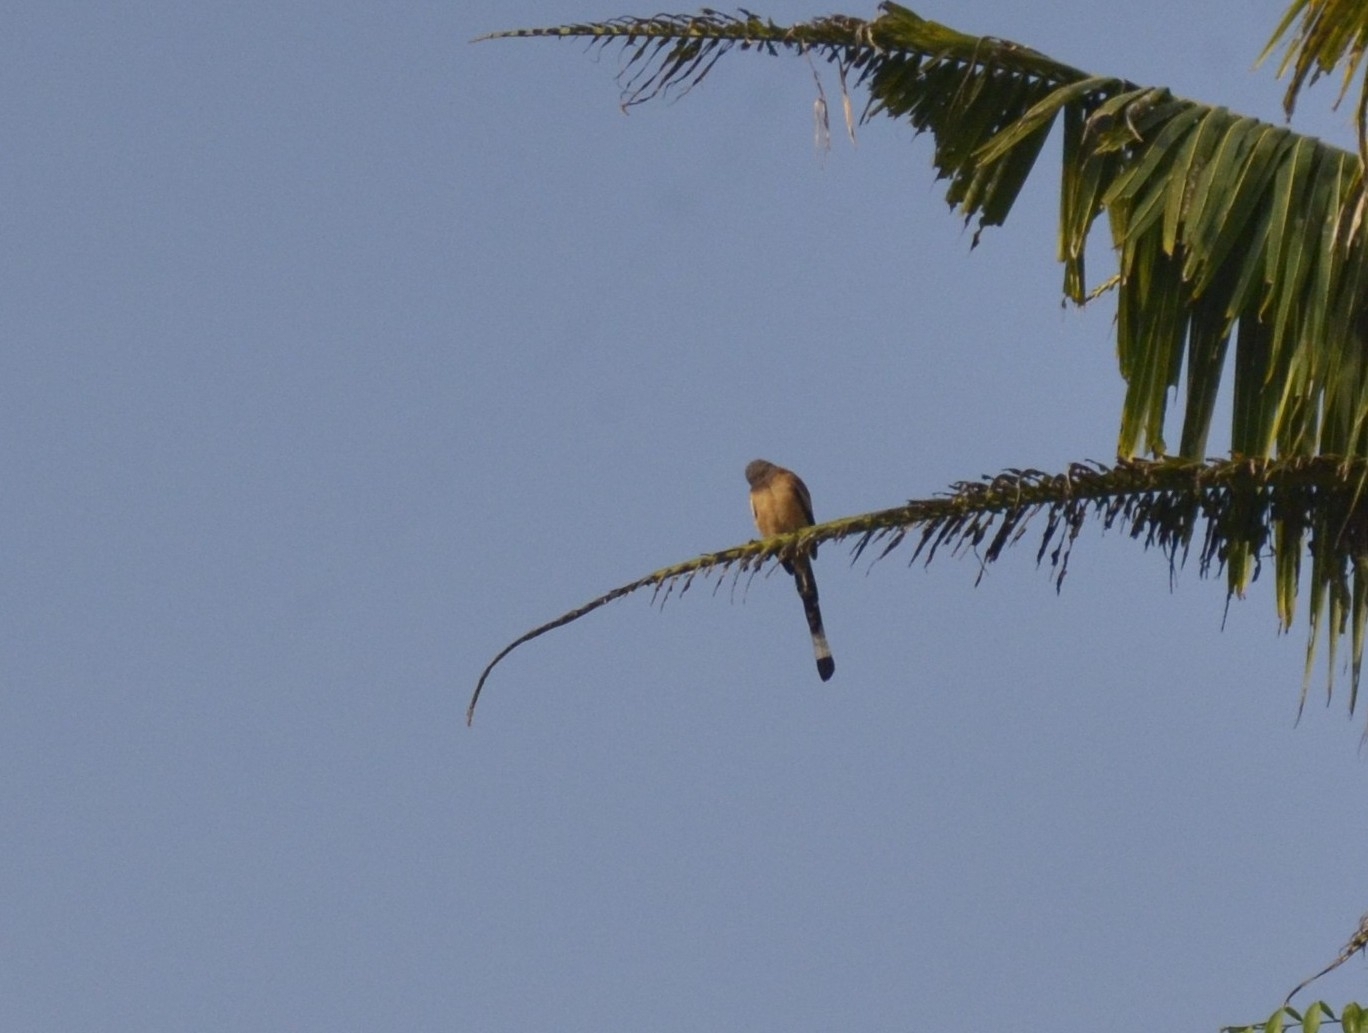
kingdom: Animalia
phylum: Chordata
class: Aves
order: Passeriformes
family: Corvidae
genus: Dendrocitta
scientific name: Dendrocitta vagabunda
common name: Rufous treepie
